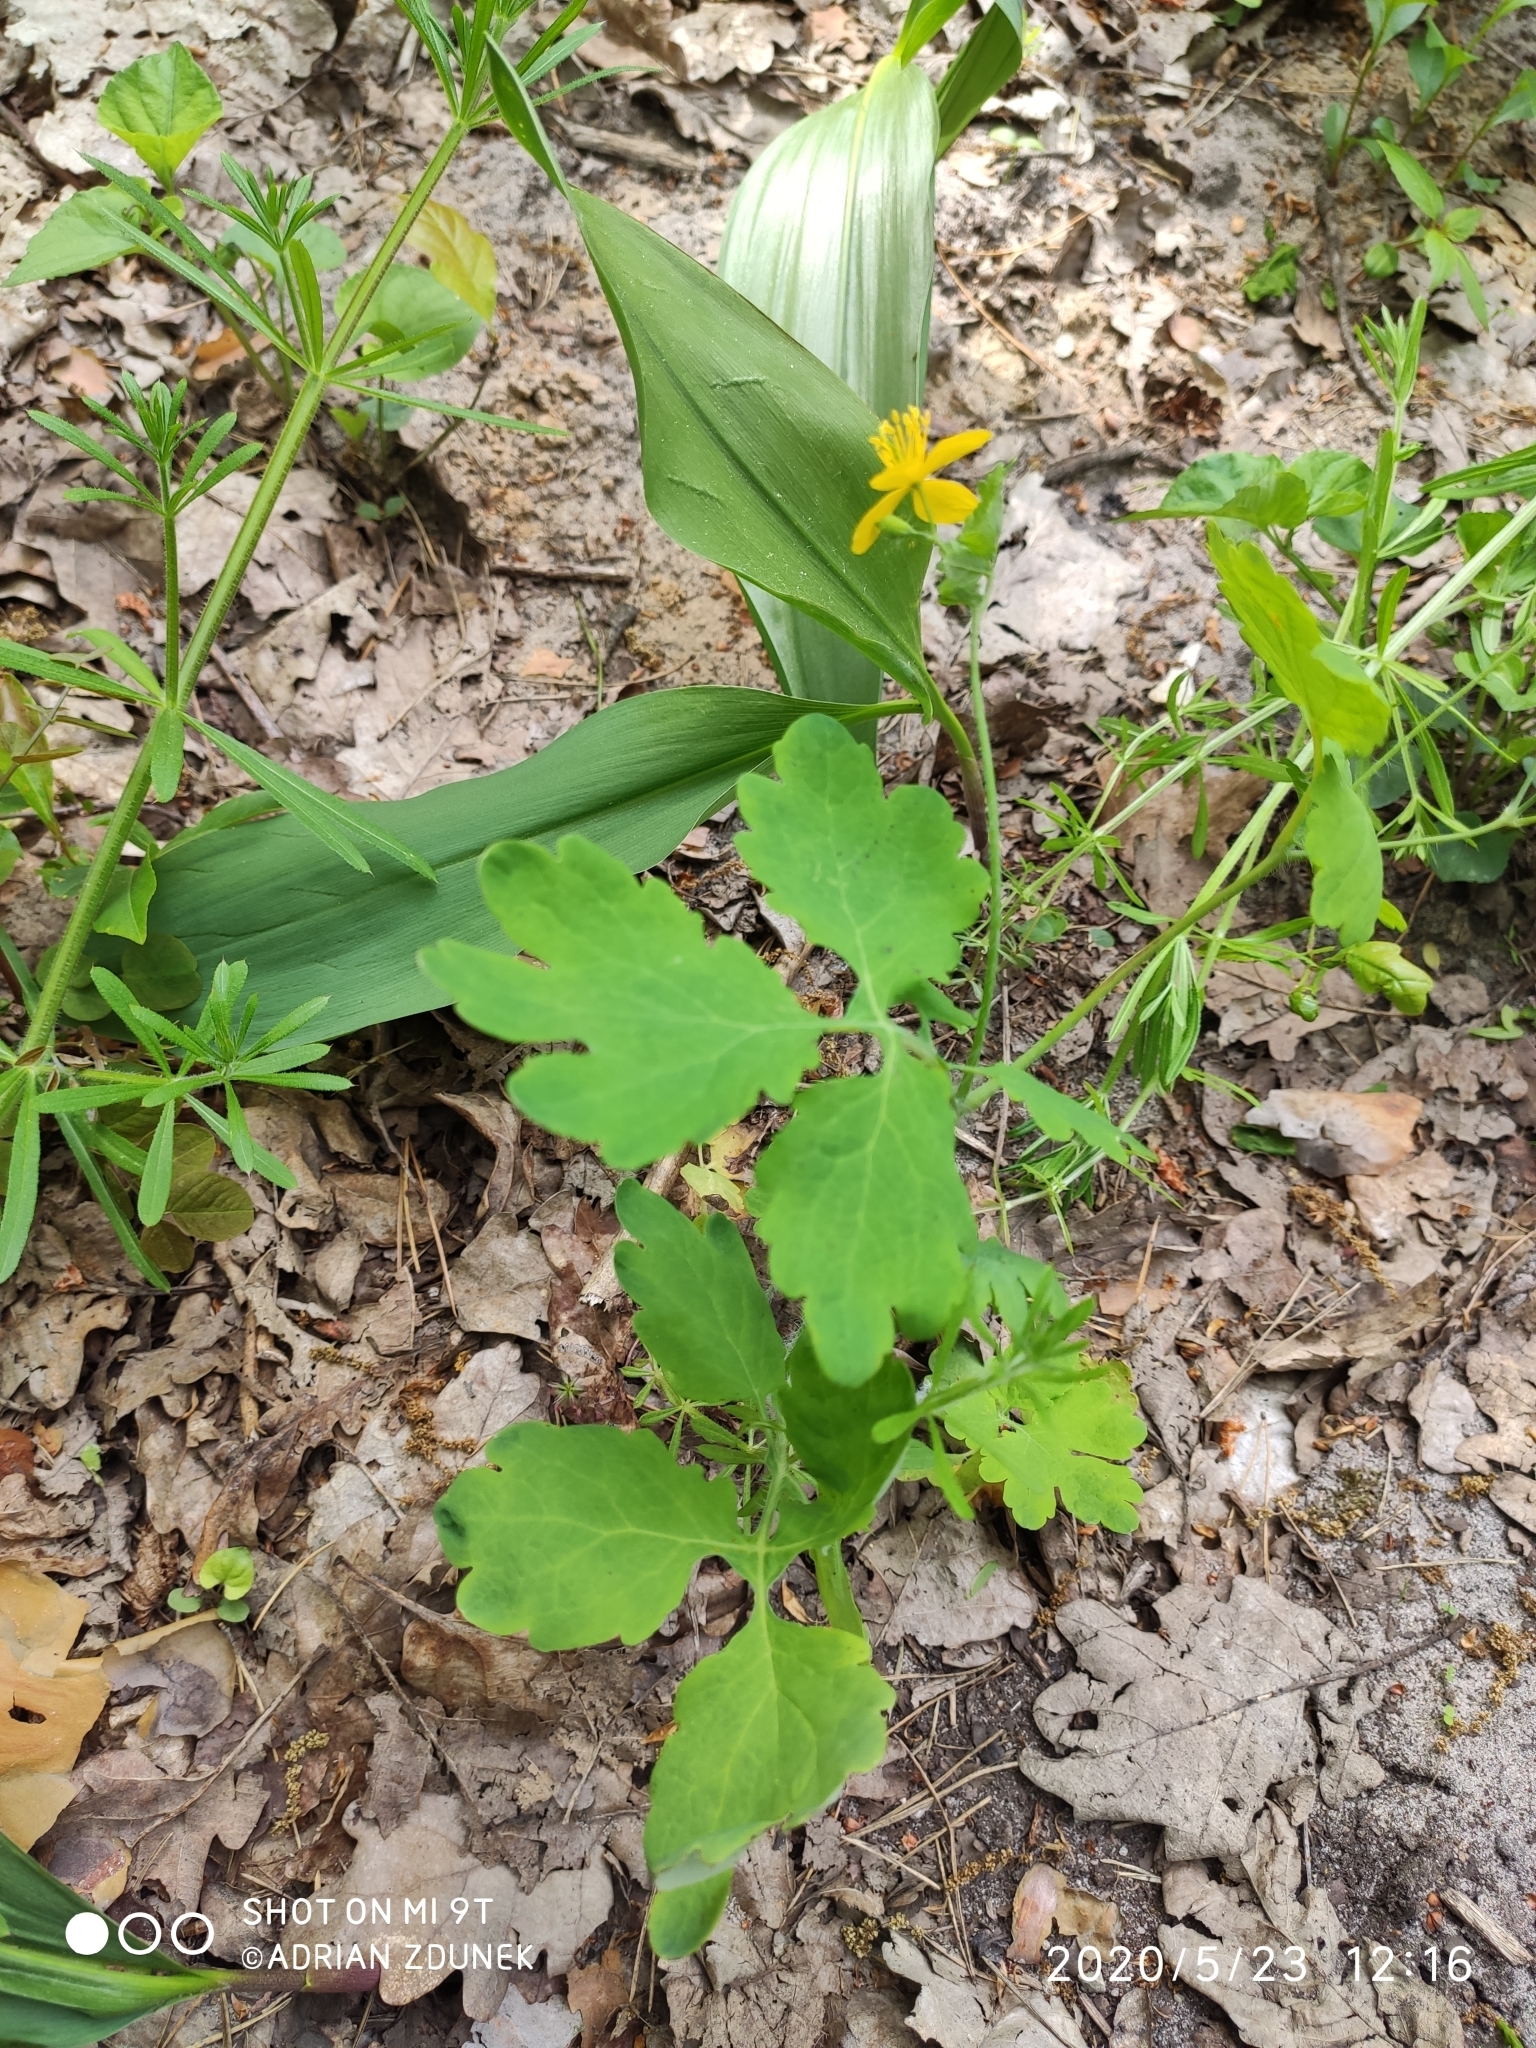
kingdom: Plantae
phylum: Tracheophyta
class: Magnoliopsida
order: Ranunculales
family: Papaveraceae
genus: Chelidonium
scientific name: Chelidonium majus
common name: Greater celandine
